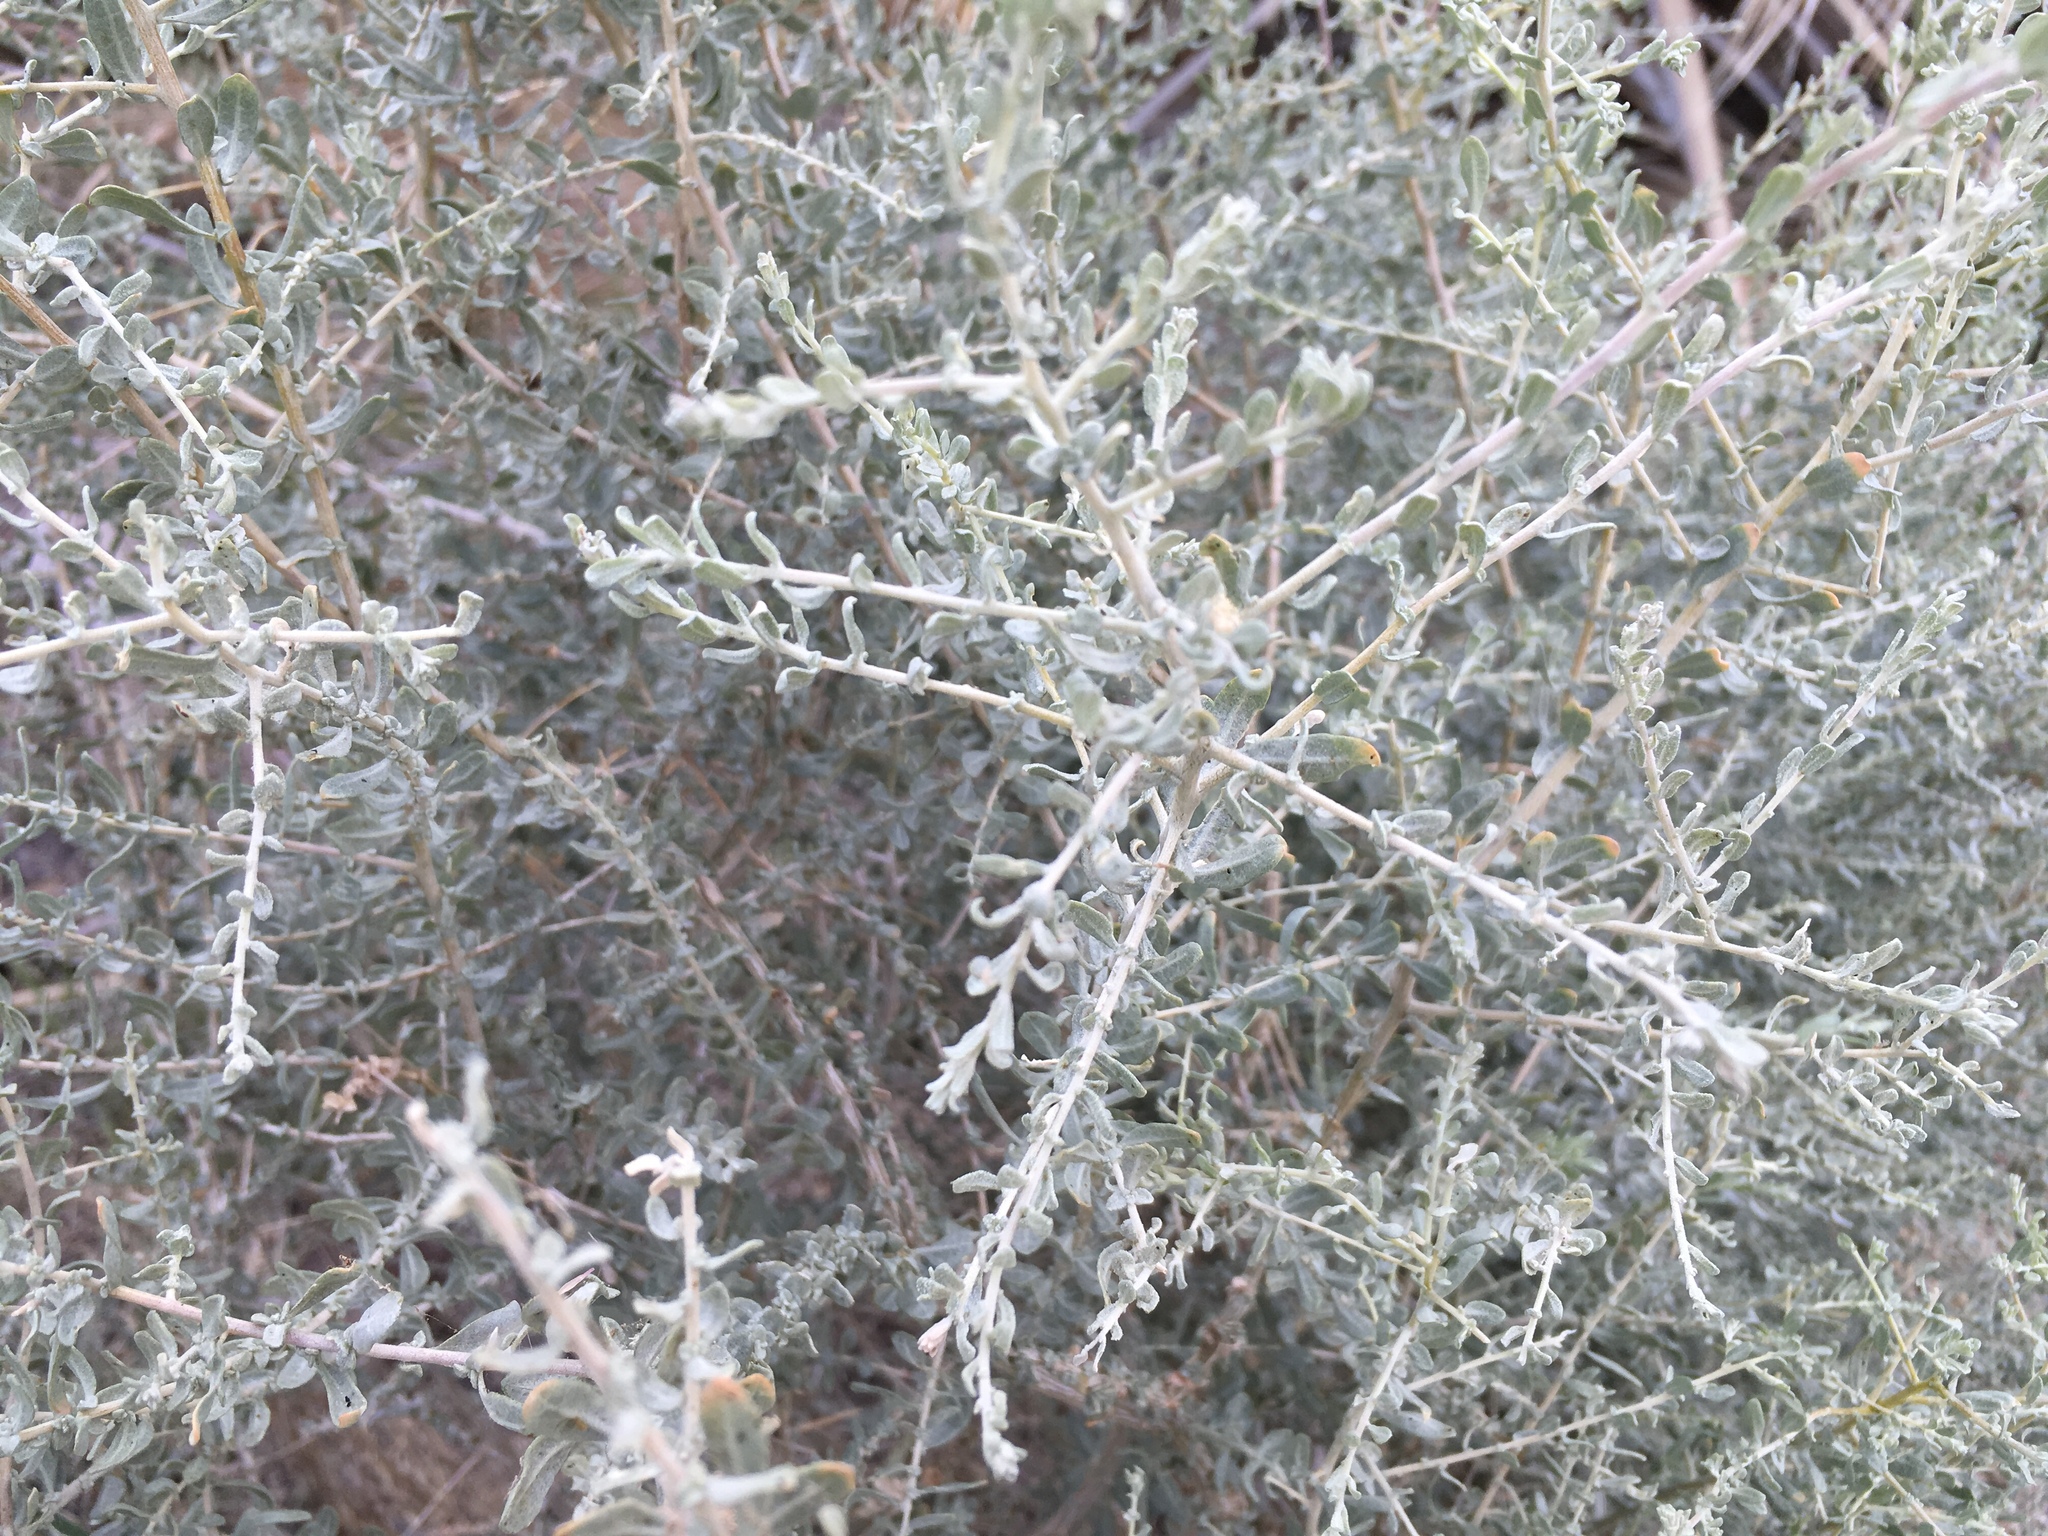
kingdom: Plantae
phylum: Tracheophyta
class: Magnoliopsida
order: Caryophyllales
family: Amaranthaceae
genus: Atriplex
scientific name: Atriplex polycarpa
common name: Desert saltbush
